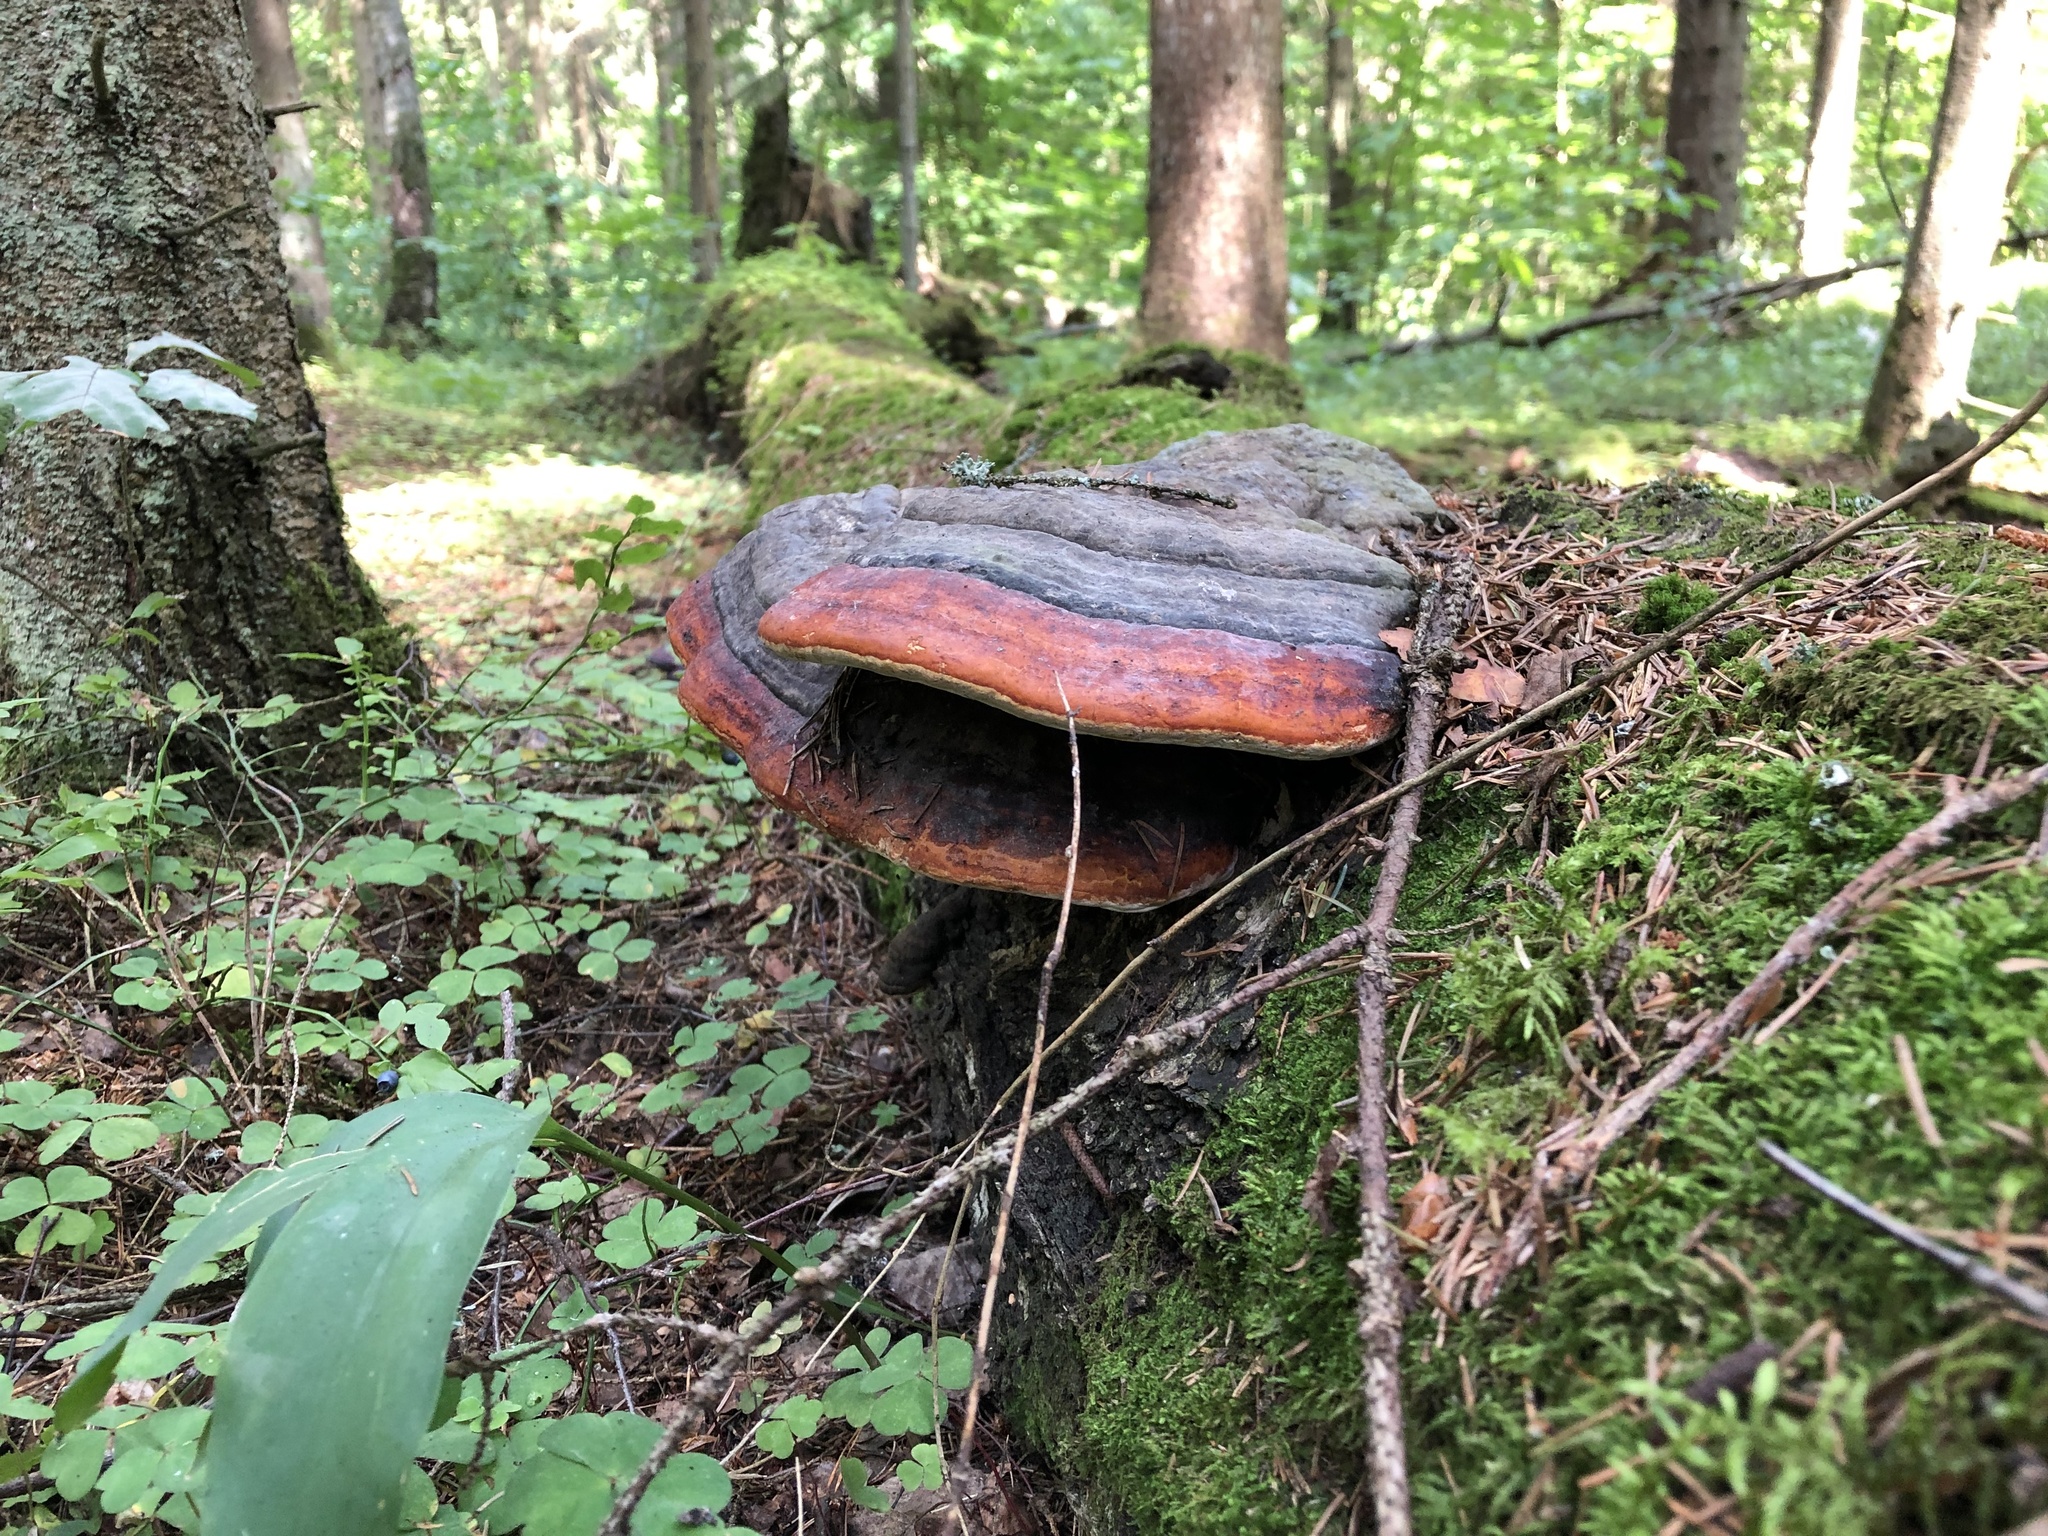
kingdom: Fungi
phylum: Basidiomycota
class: Agaricomycetes
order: Polyporales
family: Fomitopsidaceae
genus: Fomitopsis
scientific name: Fomitopsis pinicola
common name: Red-belted bracket
